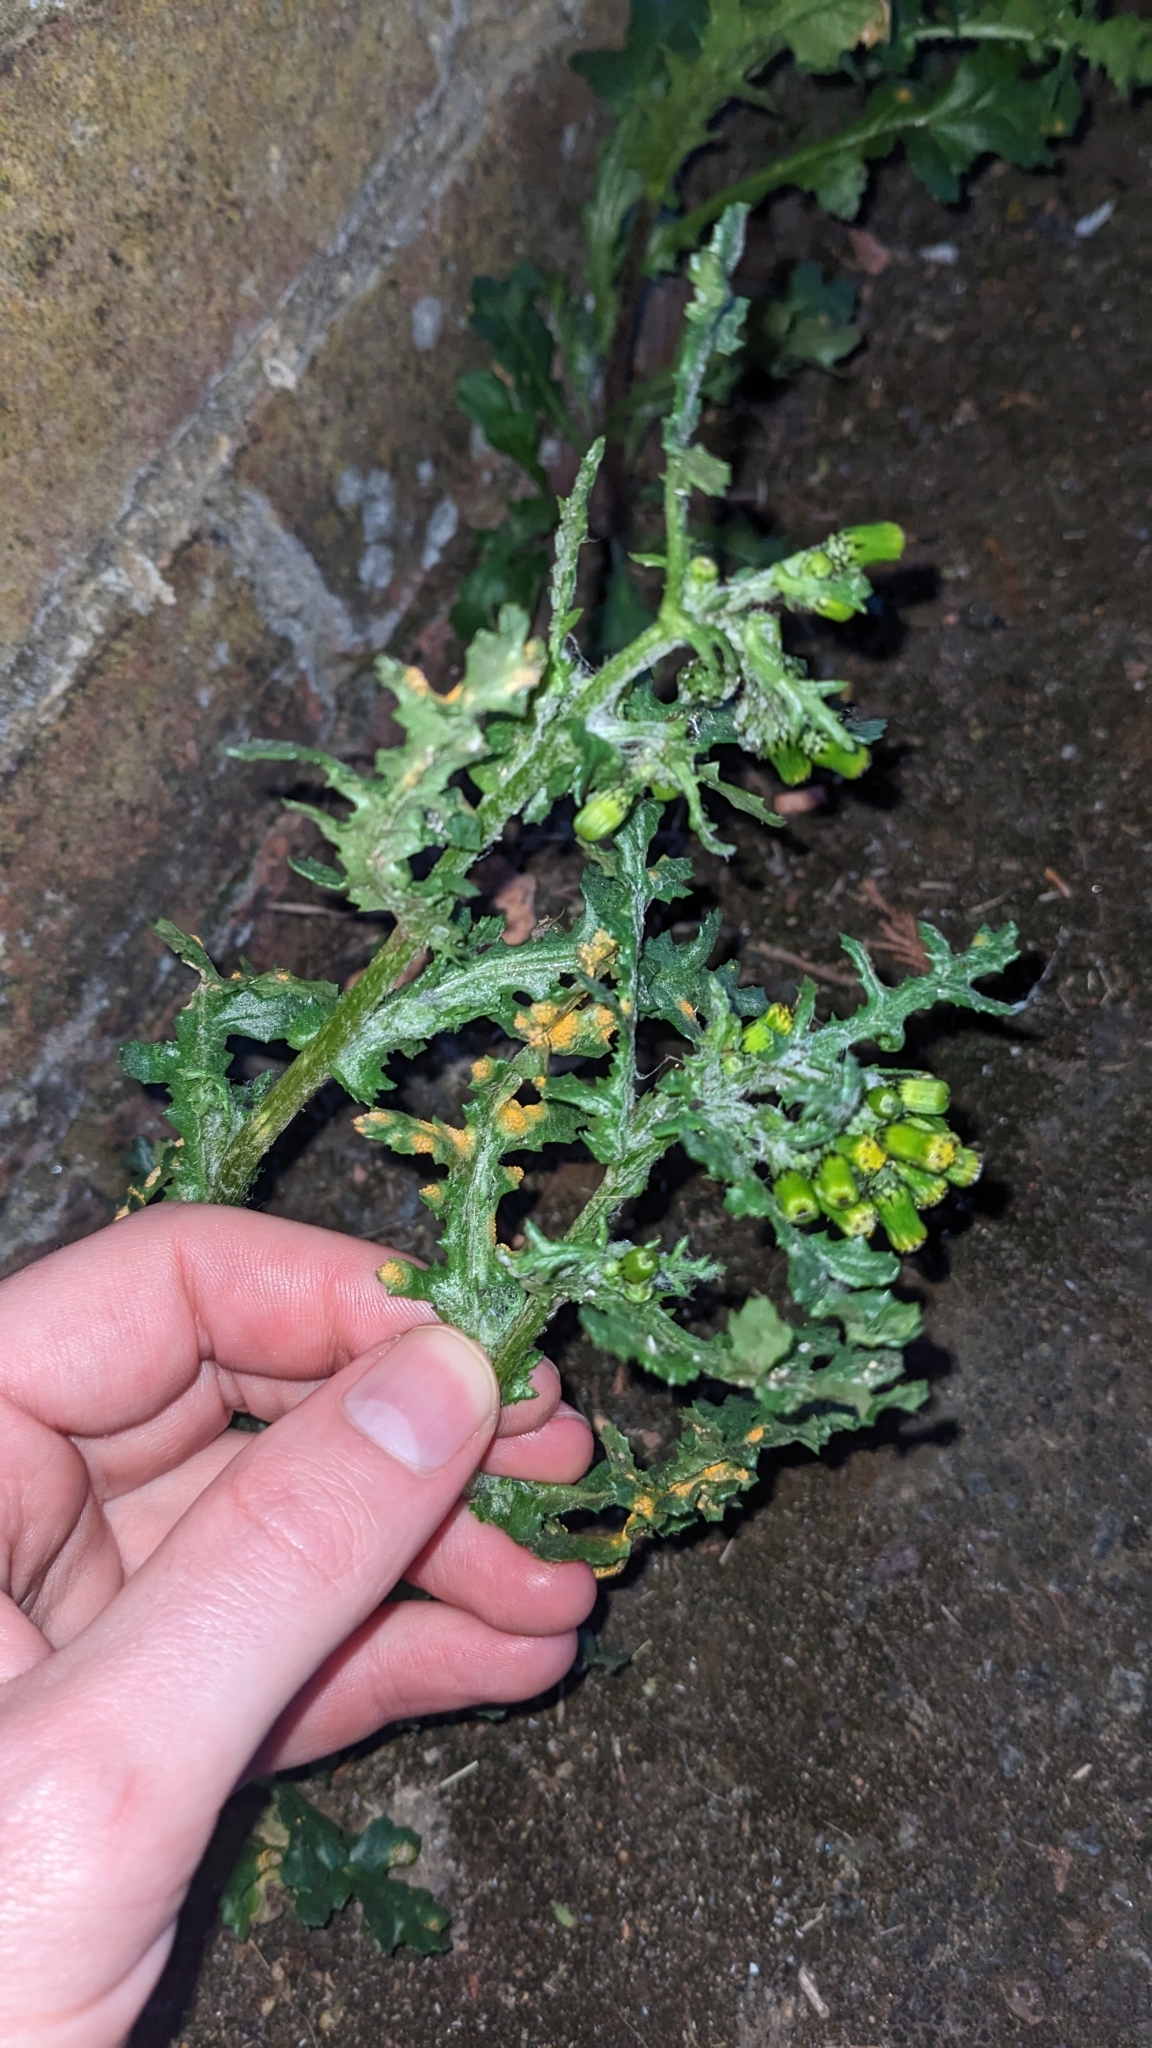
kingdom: Fungi
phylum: Basidiomycota
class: Pucciniomycetes
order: Pucciniales
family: Pucciniaceae
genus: Puccinia
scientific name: Puccinia lagenophorae
